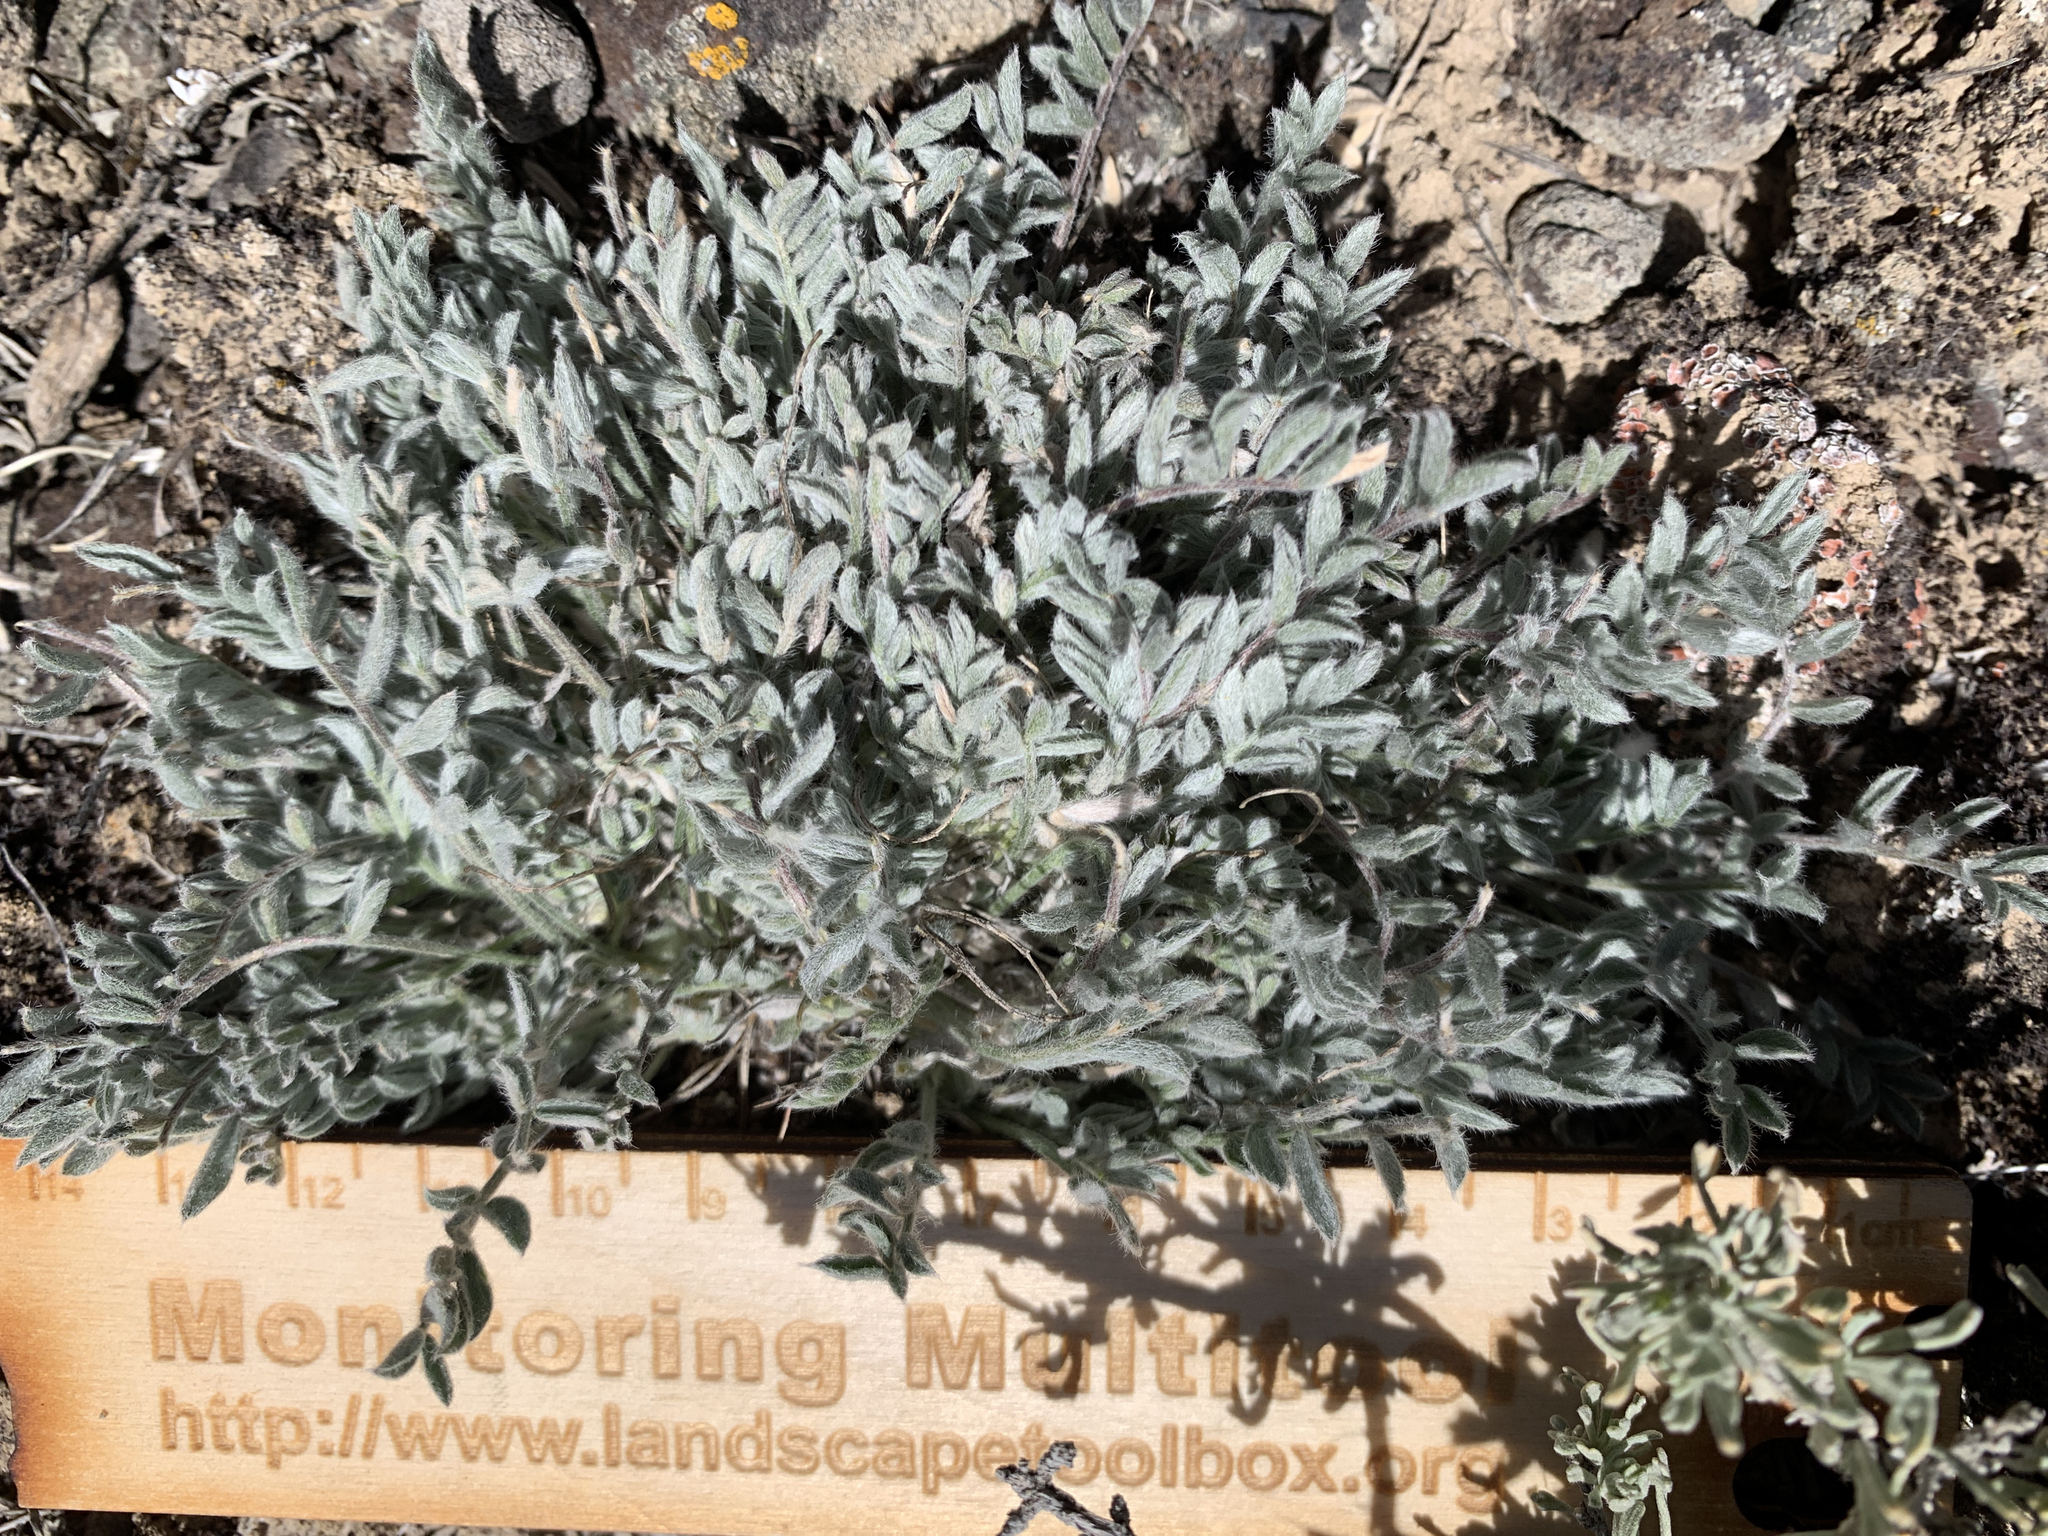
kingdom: Plantae
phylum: Tracheophyta
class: Magnoliopsida
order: Fabales
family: Fabaceae
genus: Astragalus
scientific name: Astragalus purshii
